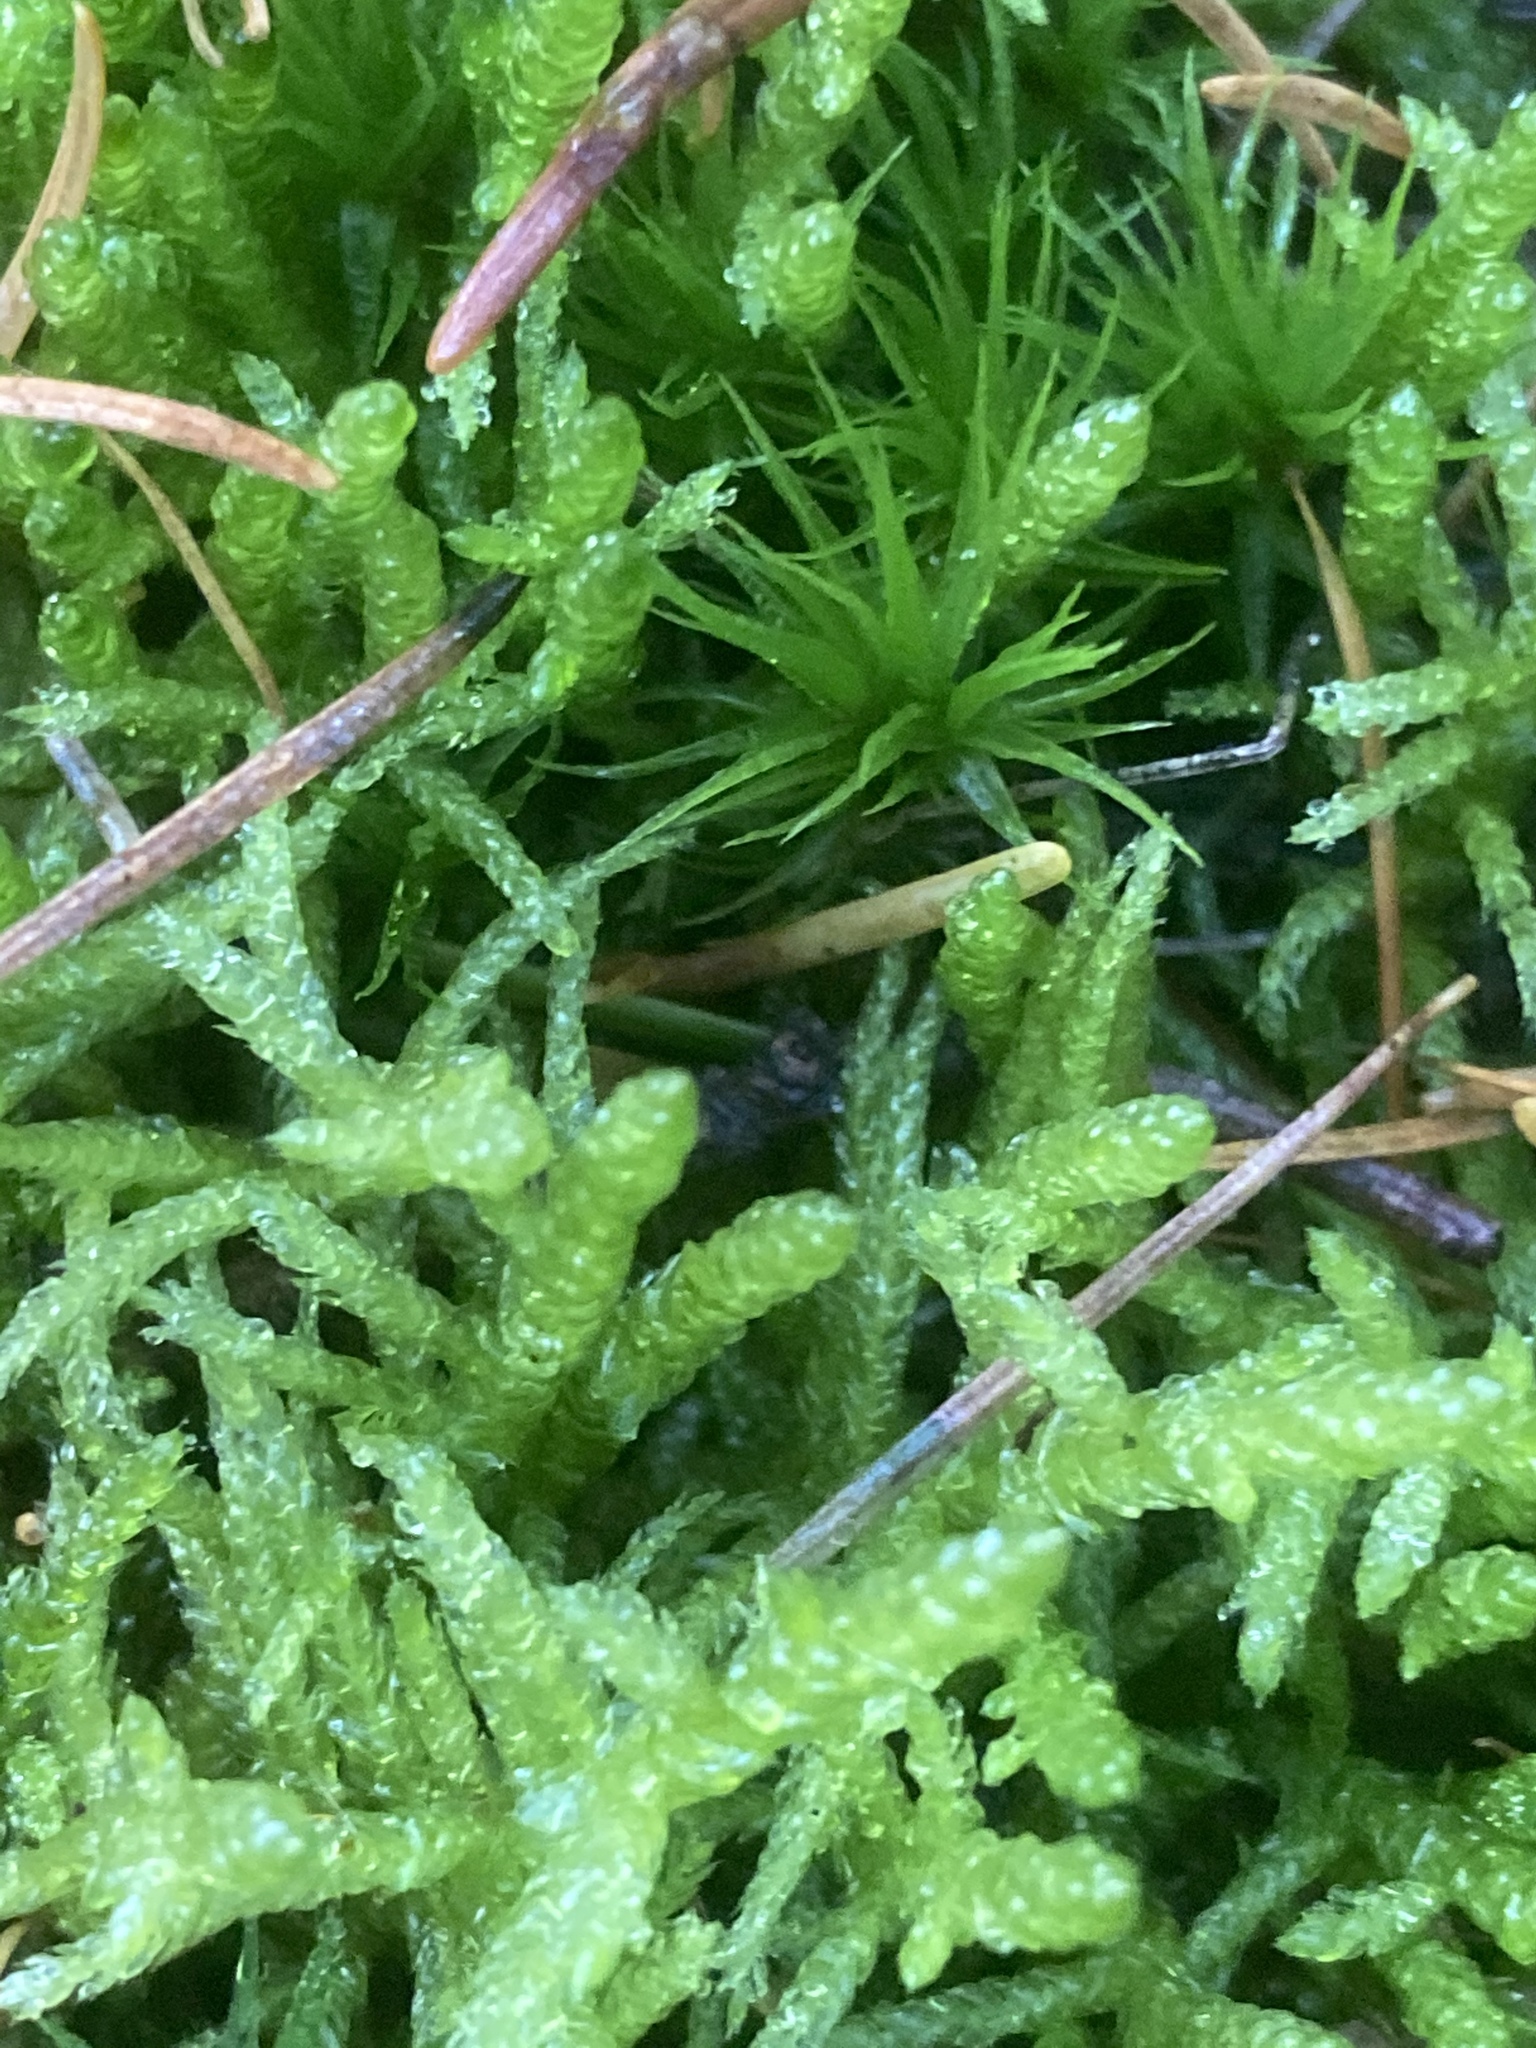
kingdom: Plantae
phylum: Bryophyta
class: Bryopsida
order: Hypnales
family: Brachytheciaceae
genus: Pseudoscleropodium
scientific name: Pseudoscleropodium purum
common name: Neat feather-moss
